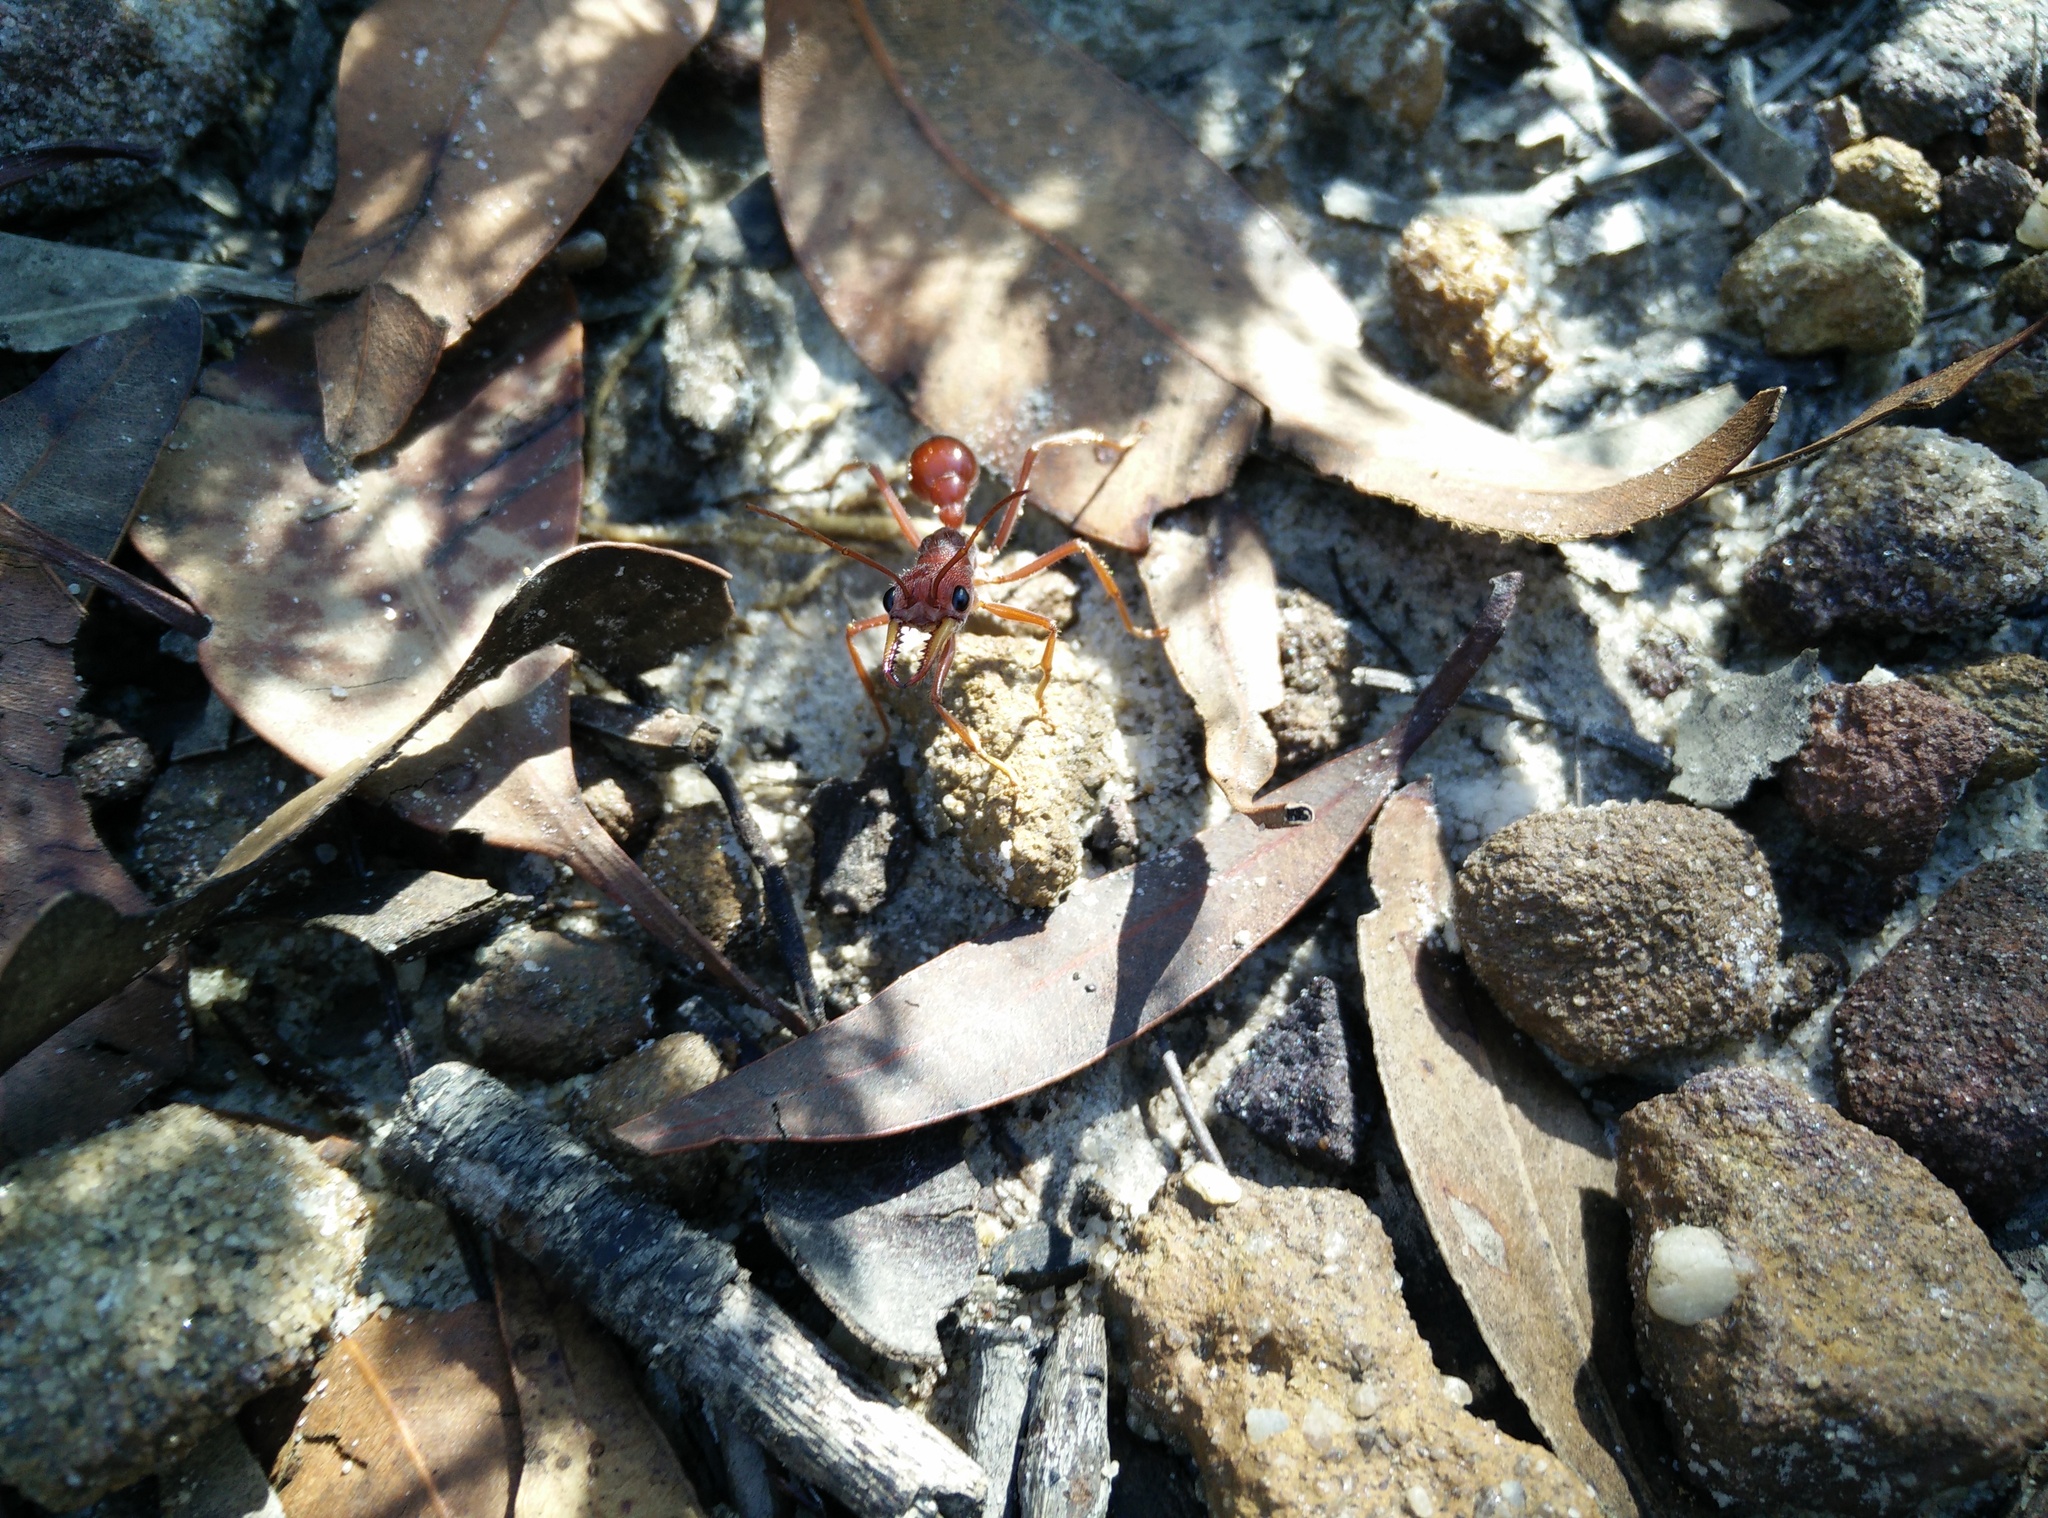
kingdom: Animalia
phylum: Arthropoda
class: Insecta
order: Hymenoptera
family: Formicidae
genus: Myrmecia
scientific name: Myrmecia gulosa
